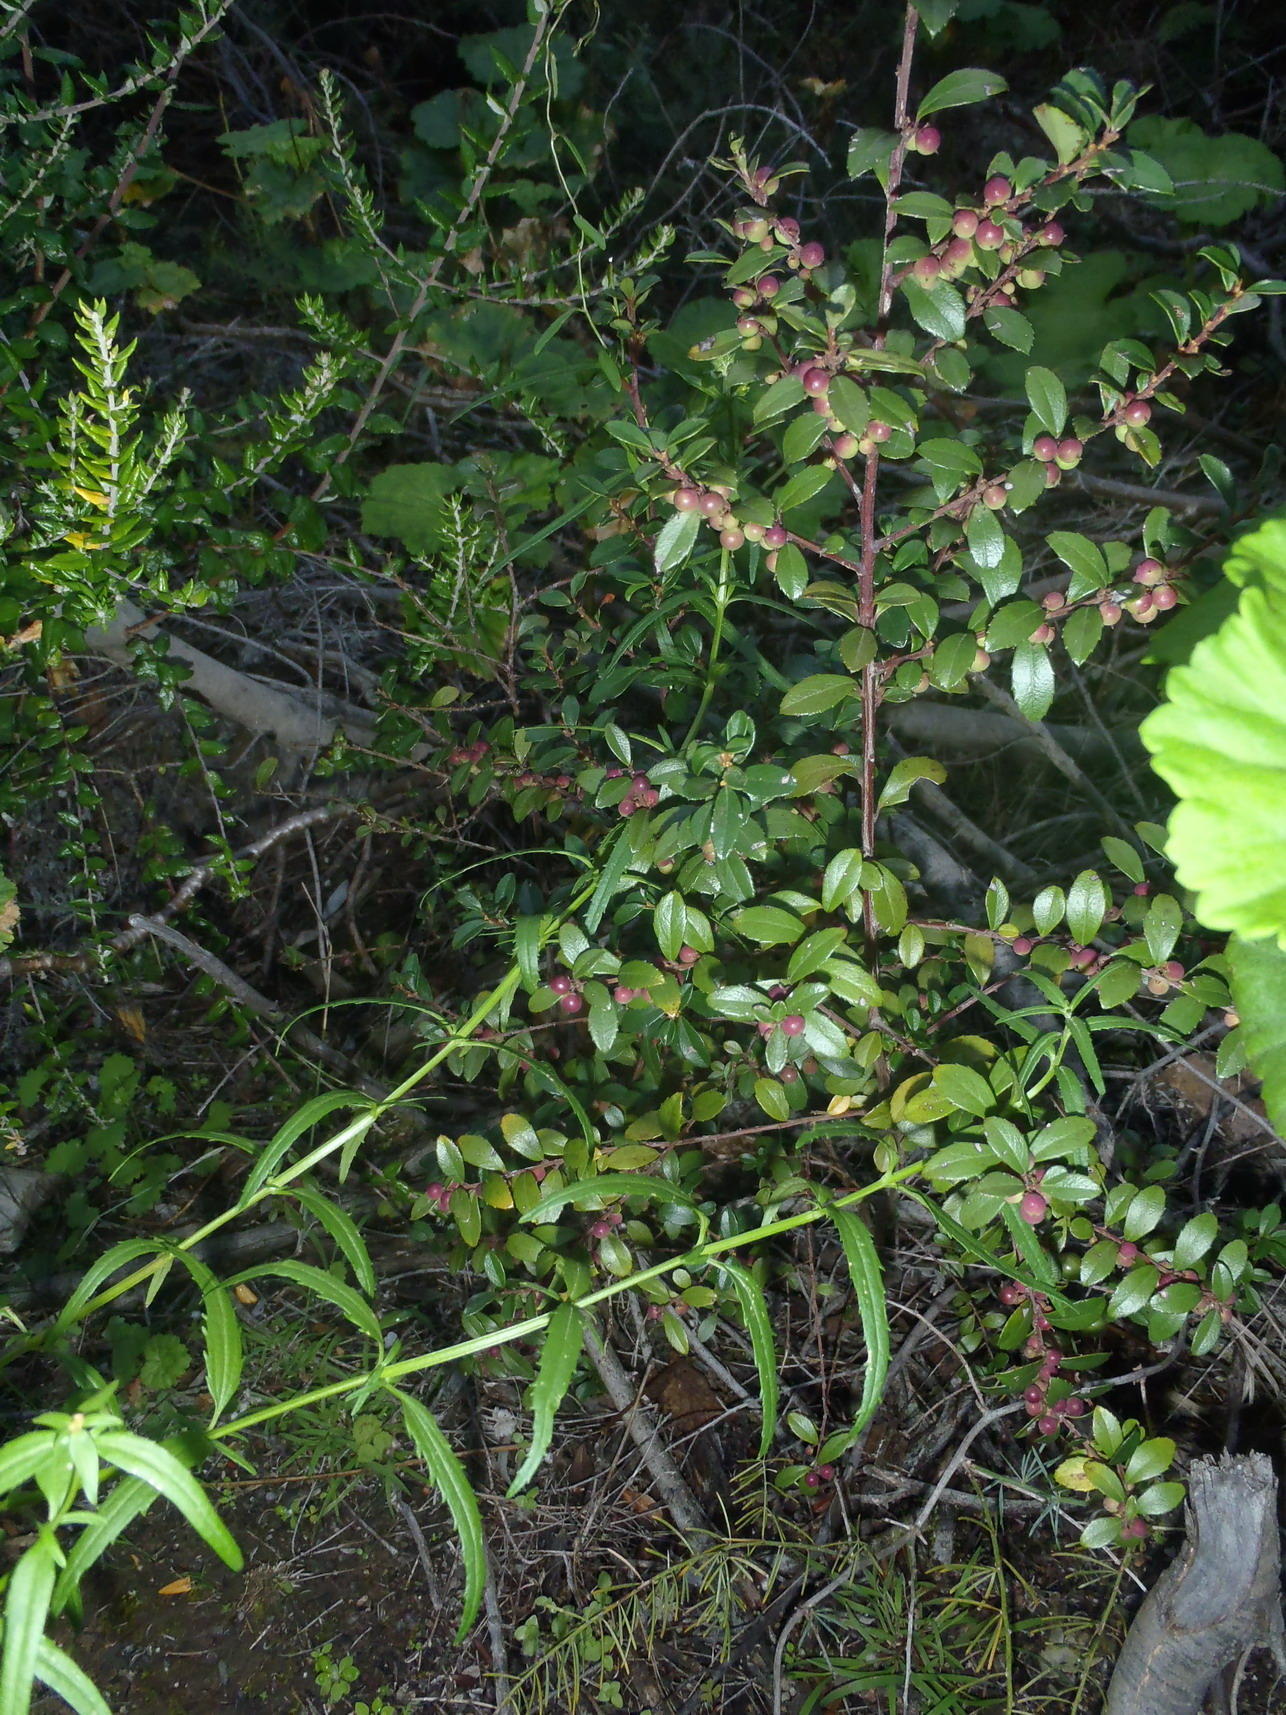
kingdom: Plantae
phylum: Tracheophyta
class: Magnoliopsida
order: Ericales
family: Primulaceae
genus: Myrsine
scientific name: Myrsine africana
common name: African-boxwood
